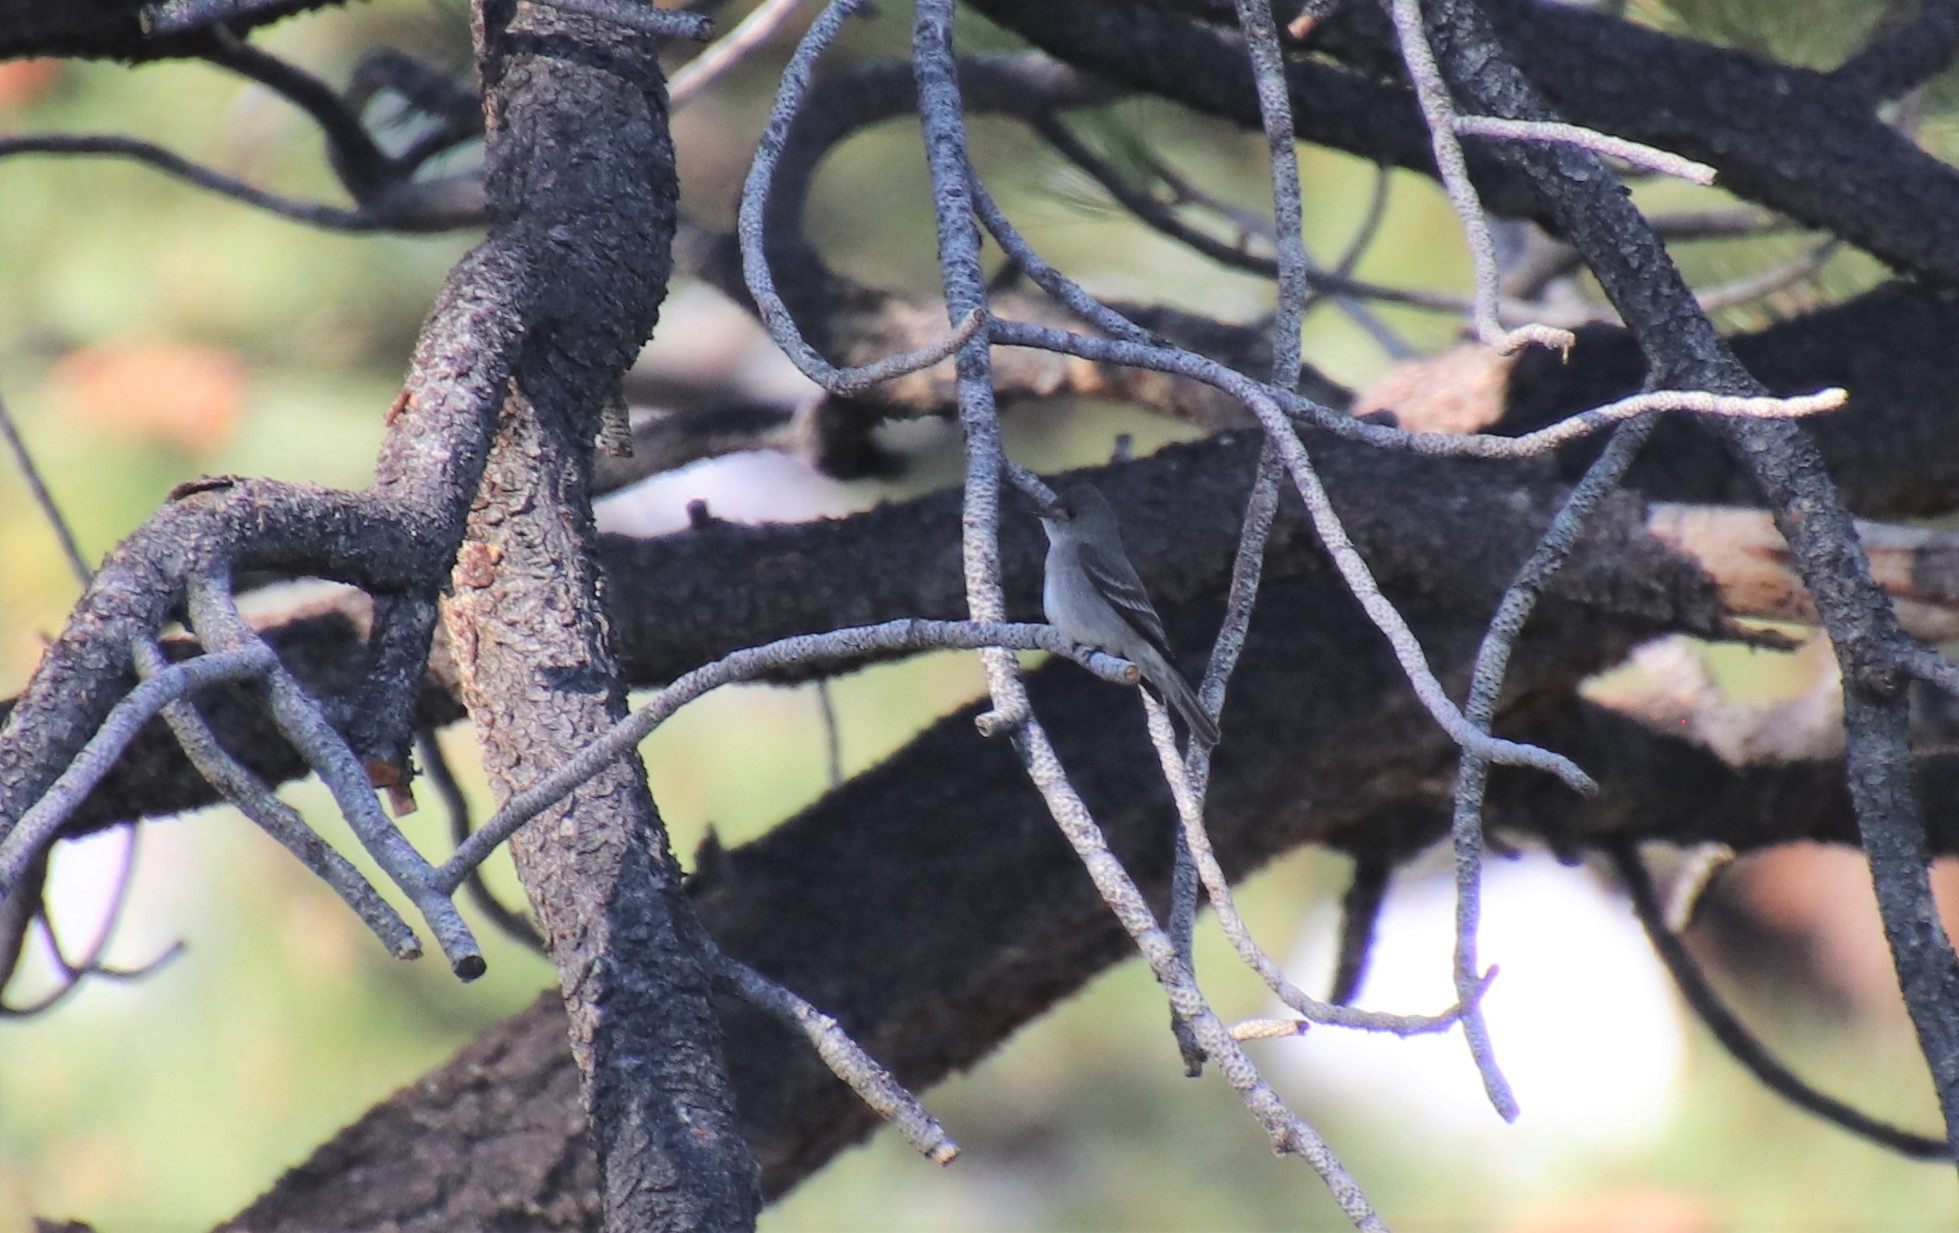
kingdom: Animalia
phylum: Chordata
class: Aves
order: Passeriformes
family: Tyrannidae
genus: Contopus
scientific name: Contopus sordidulus
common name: Western wood-pewee
